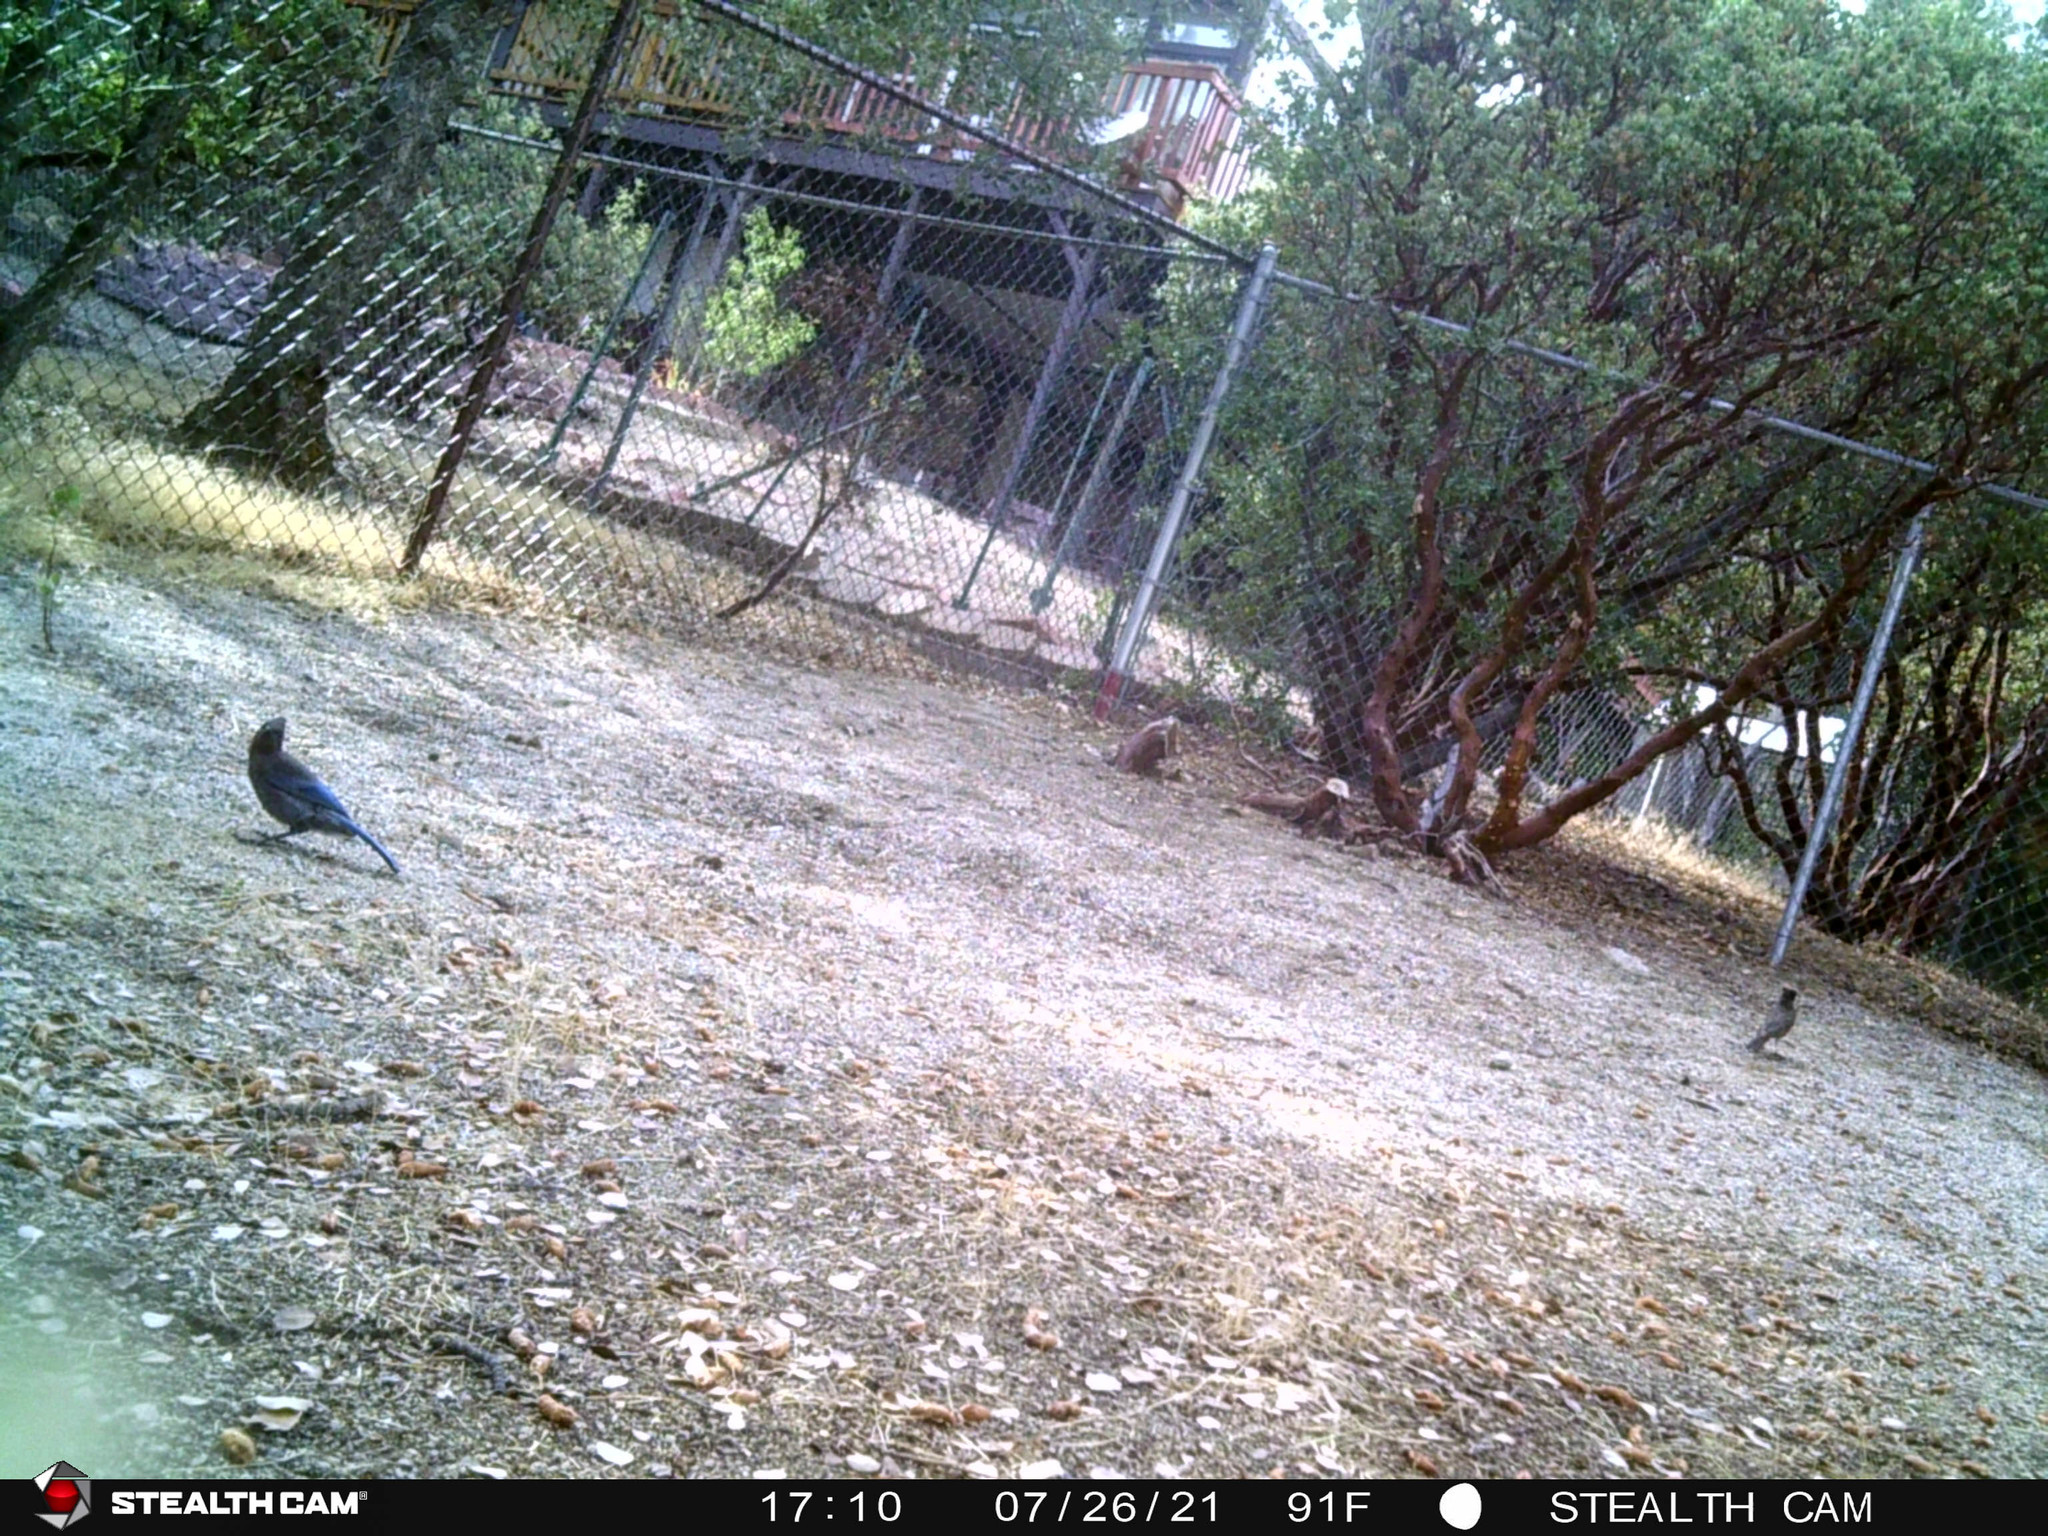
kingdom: Animalia
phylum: Chordata
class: Aves
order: Passeriformes
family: Corvidae
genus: Cyanocitta
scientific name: Cyanocitta stelleri
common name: Steller's jay
